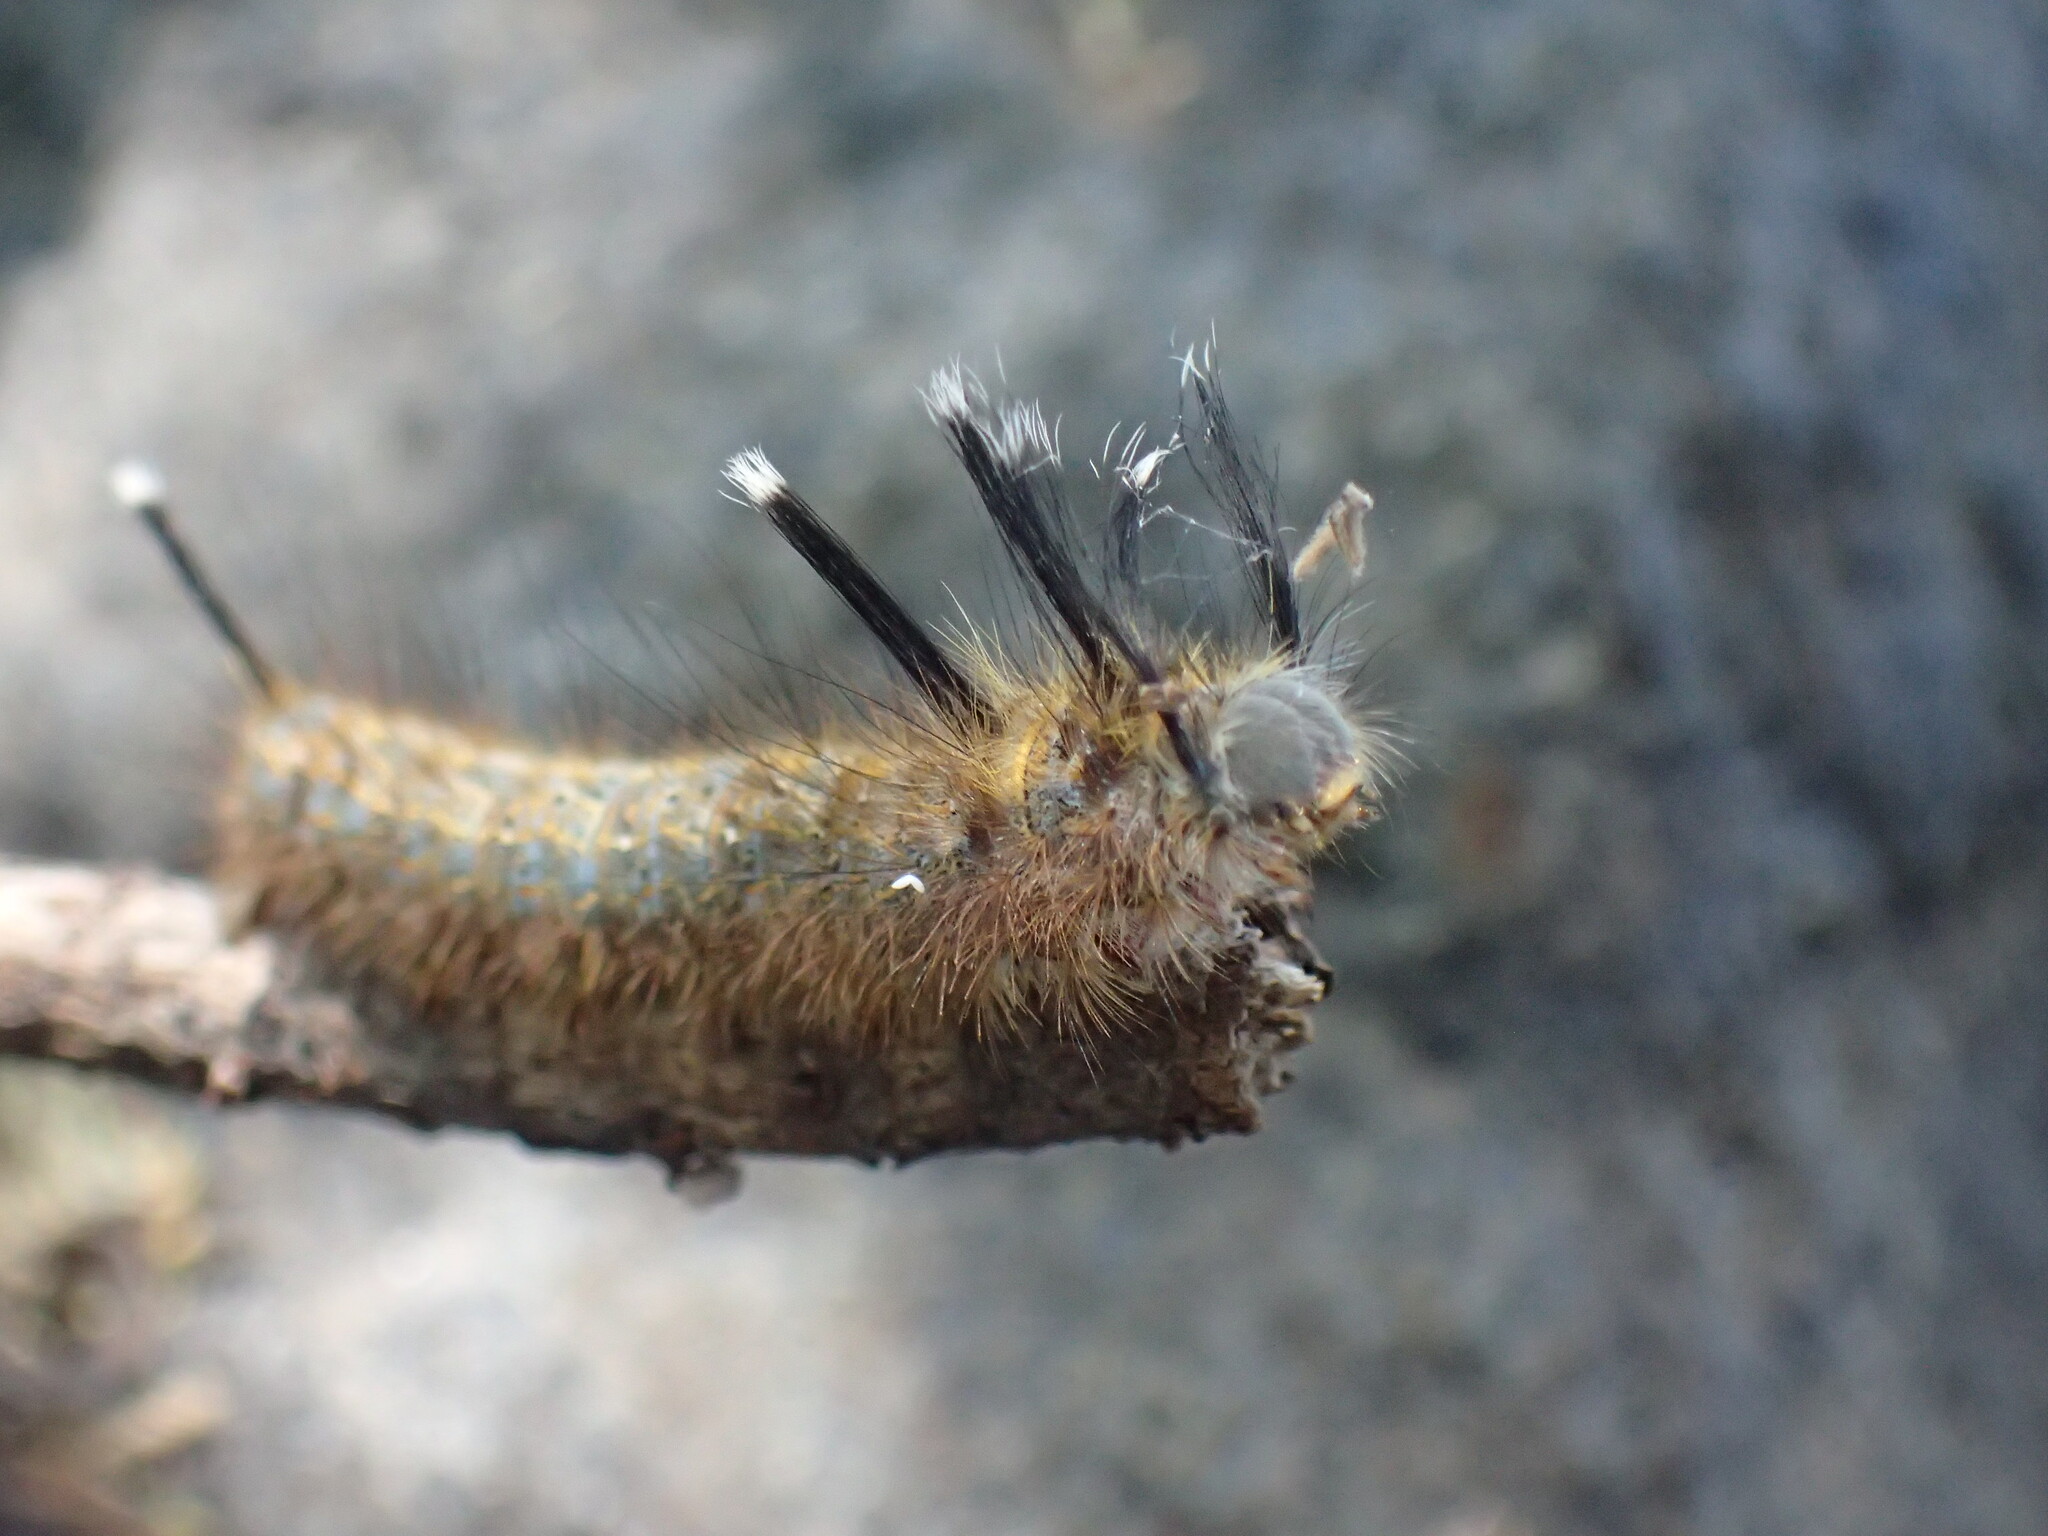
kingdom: Animalia
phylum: Arthropoda
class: Insecta
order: Lepidoptera
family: Lasiocampidae
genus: Sena
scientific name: Sena prompta
